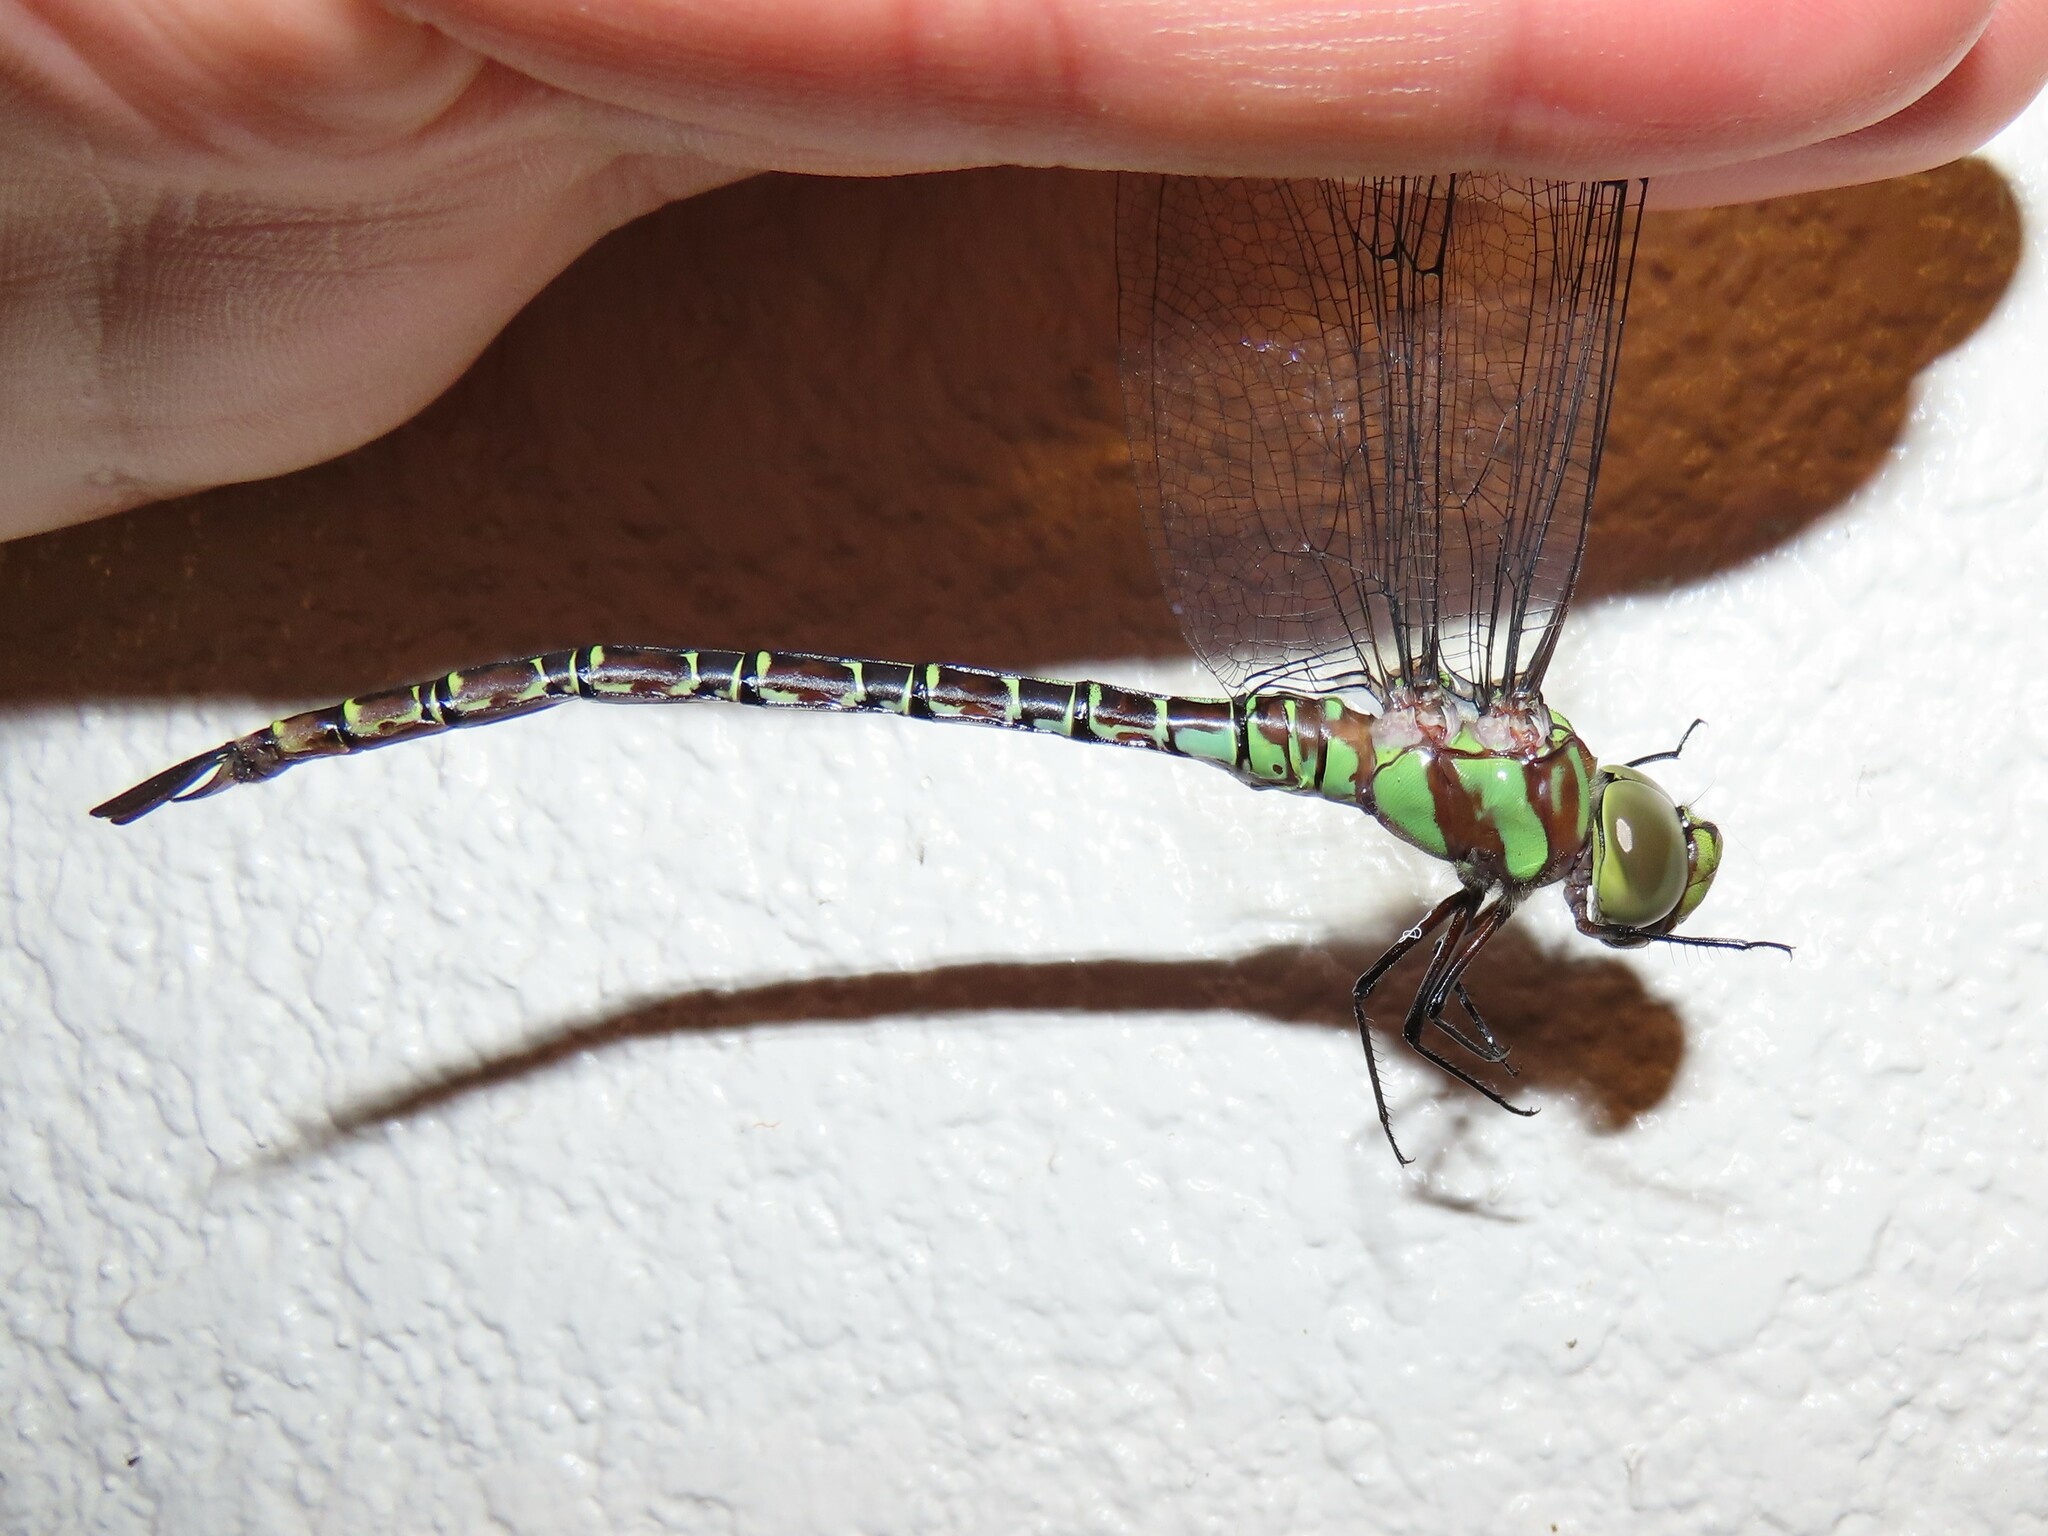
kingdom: Animalia
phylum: Arthropoda
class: Insecta
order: Odonata
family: Aeshnidae
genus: Coryphaeschna
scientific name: Coryphaeschna ingens
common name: Regal darner
